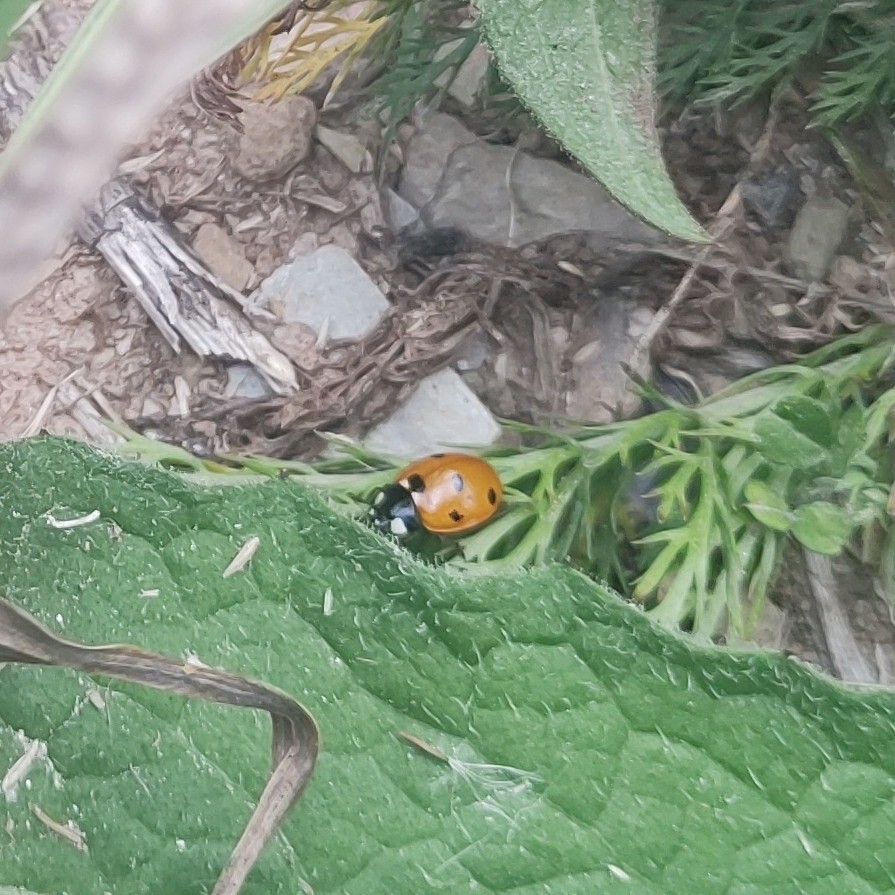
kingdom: Animalia
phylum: Arthropoda
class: Insecta
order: Coleoptera
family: Coccinellidae
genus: Coccinella
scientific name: Coccinella septempunctata
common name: Sevenspotted lady beetle
